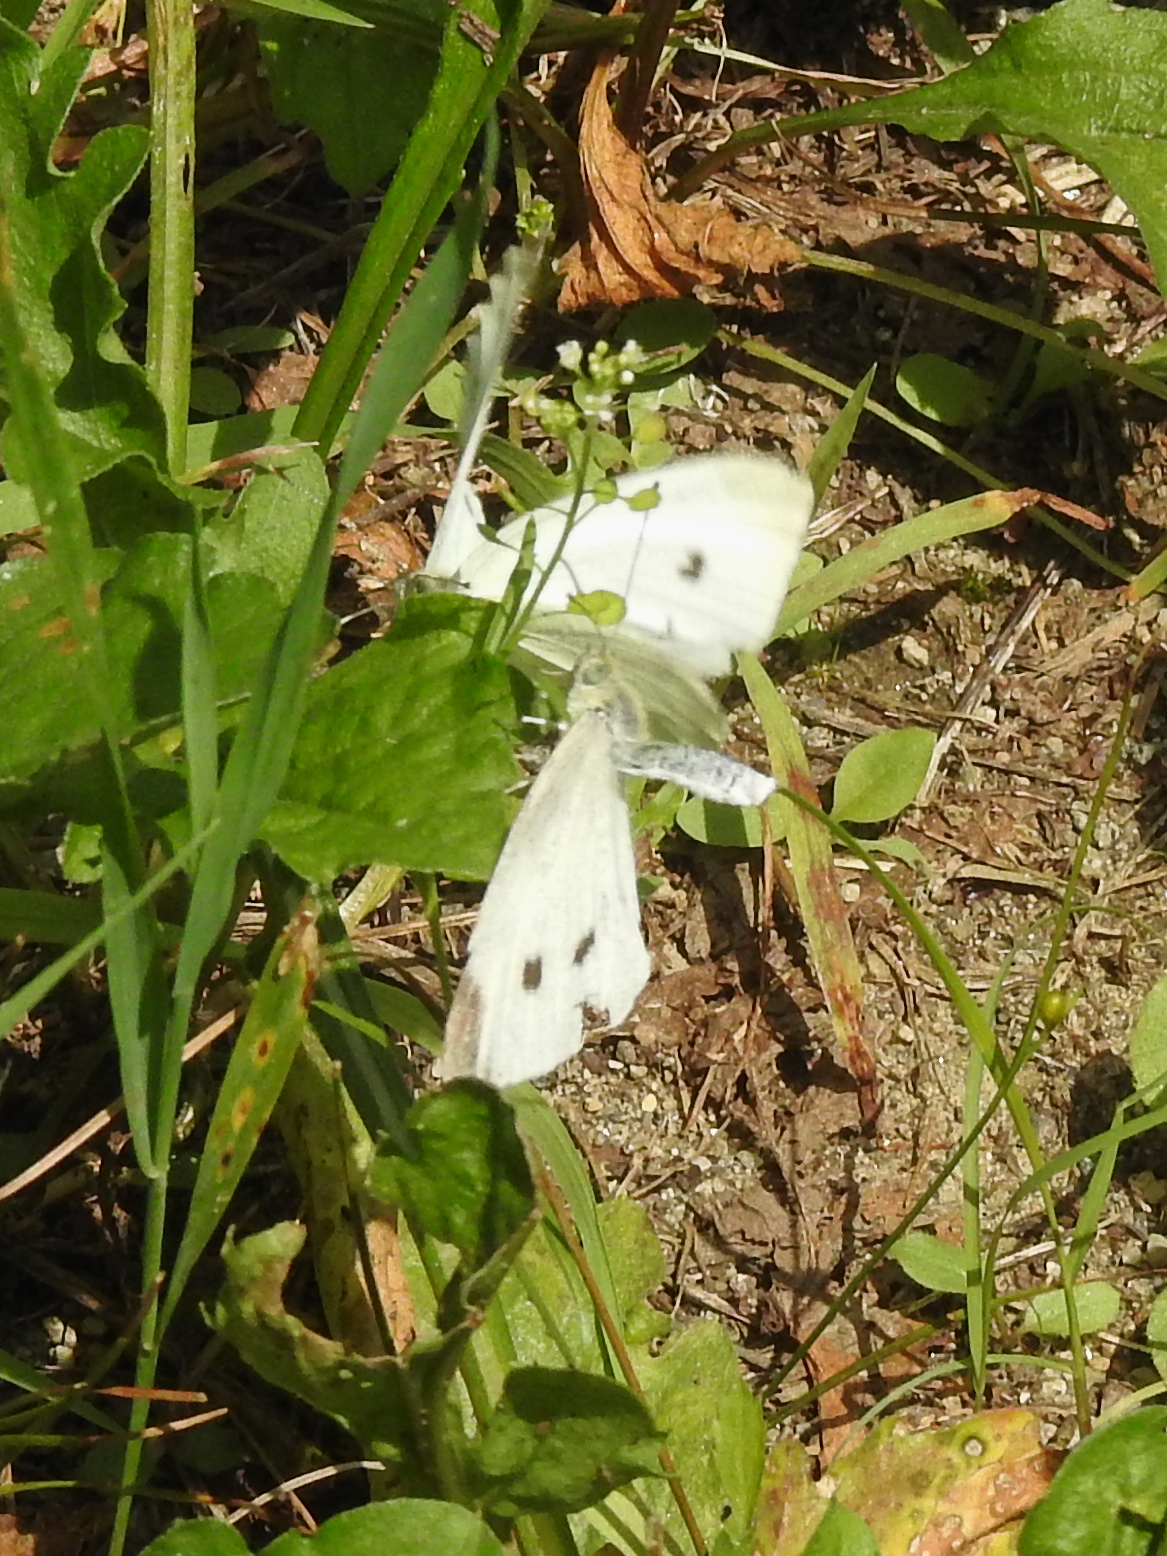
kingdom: Animalia
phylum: Arthropoda
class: Insecta
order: Lepidoptera
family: Pieridae
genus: Pieris
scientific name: Pieris rapae
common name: Small white
